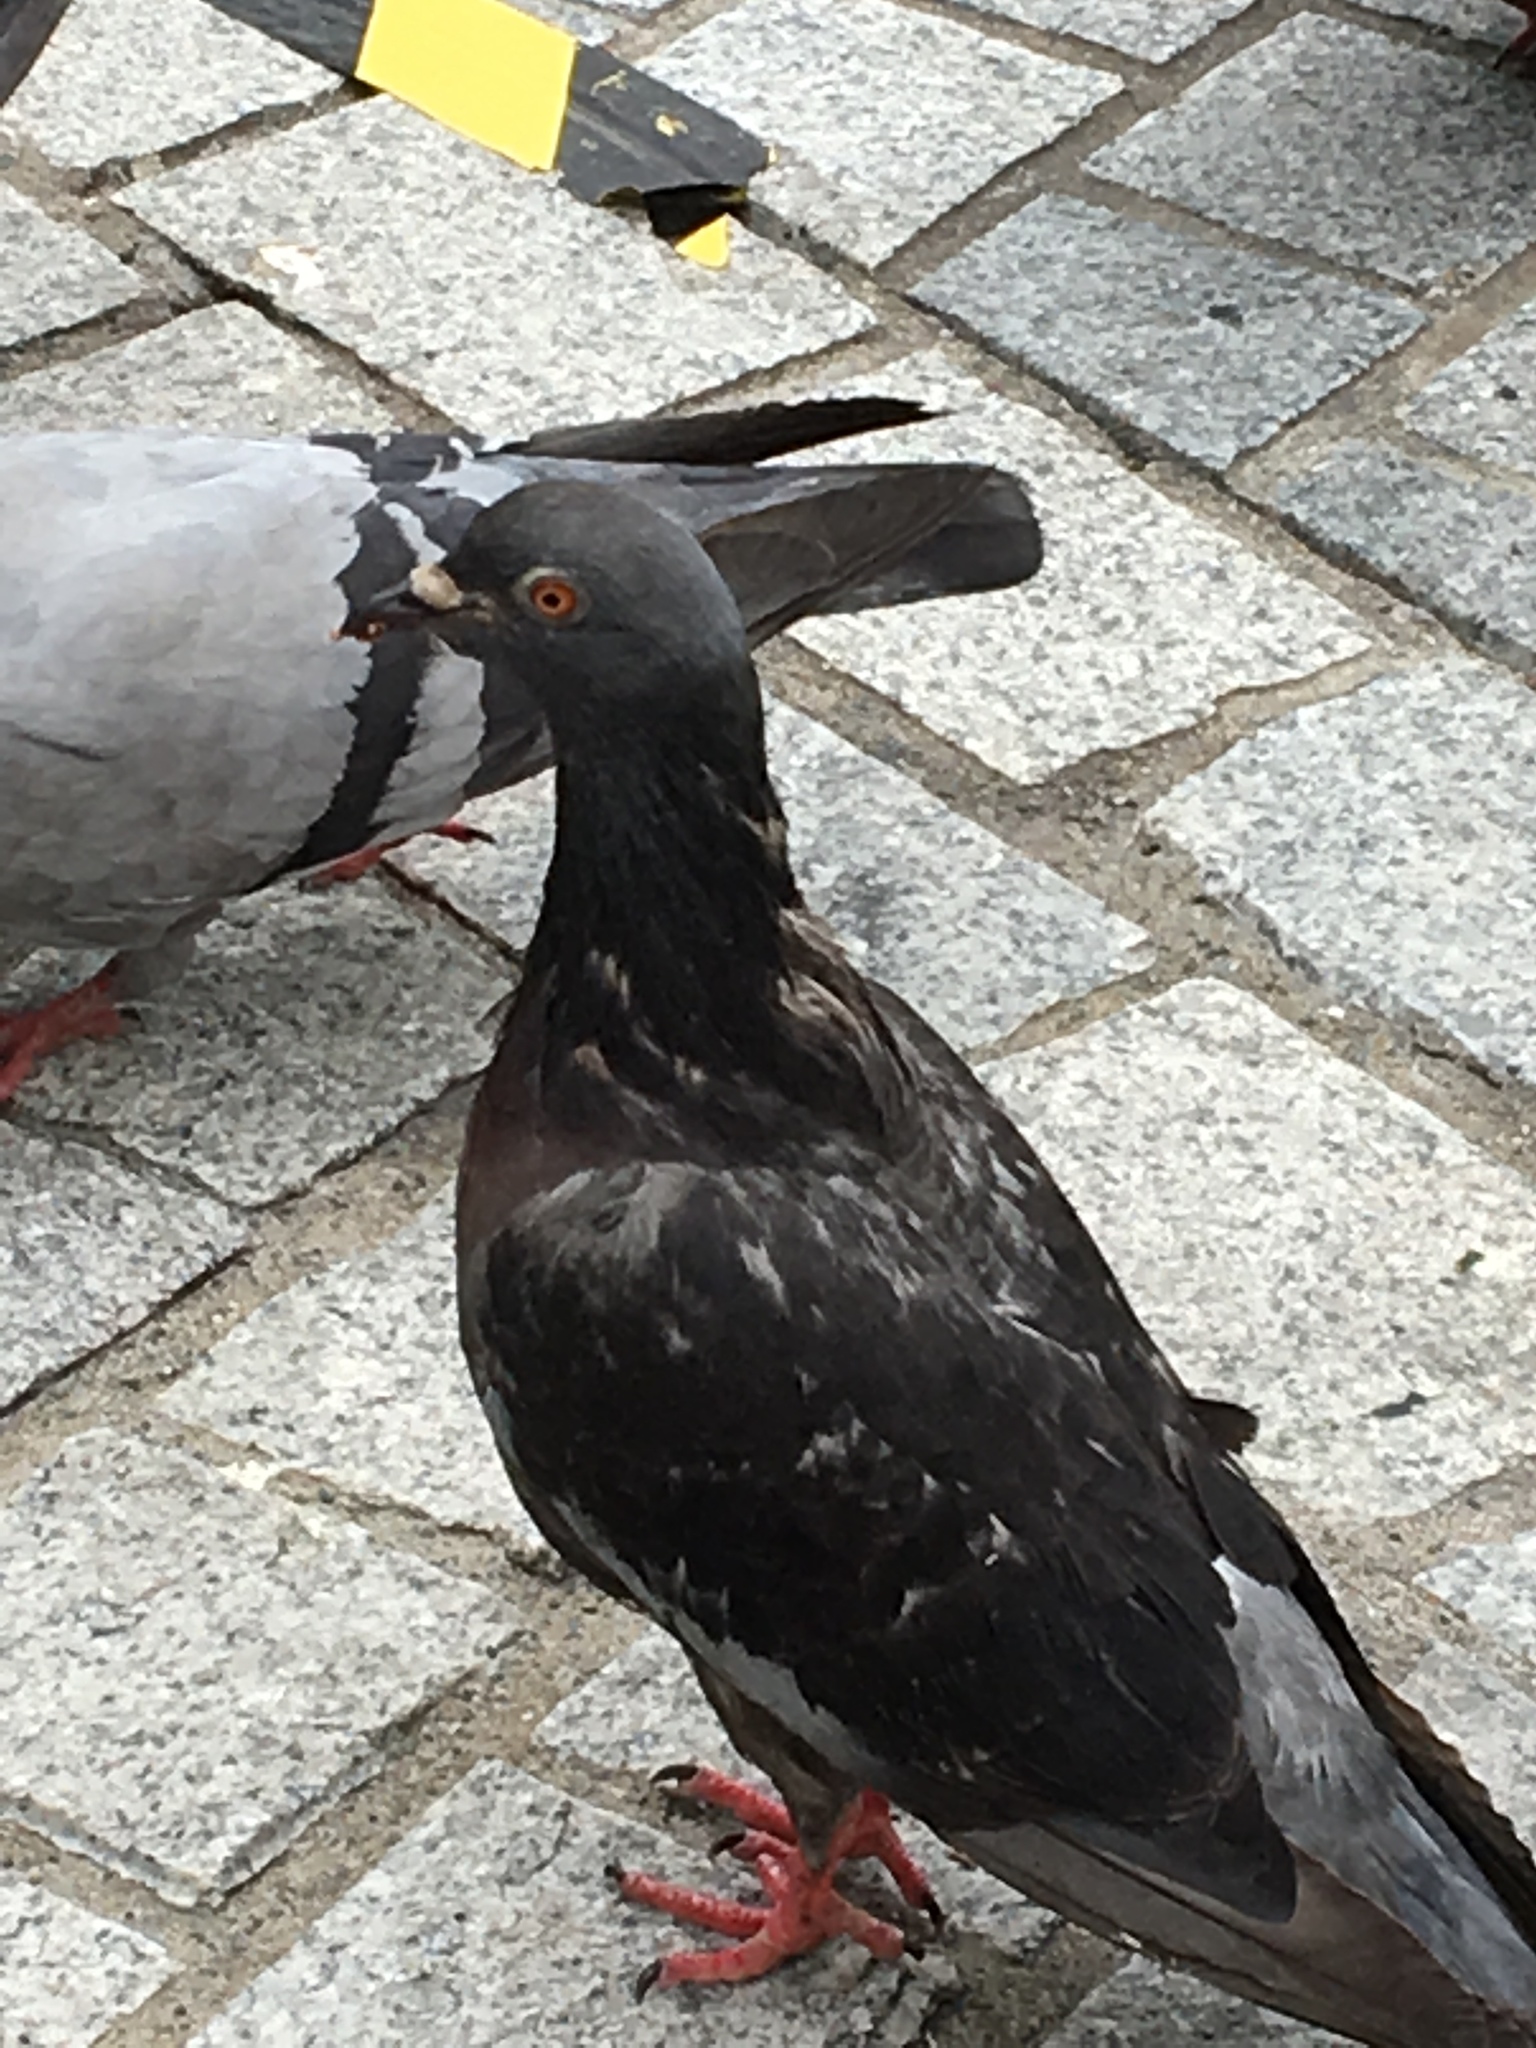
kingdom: Animalia
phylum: Chordata
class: Aves
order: Columbiformes
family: Columbidae
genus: Columba
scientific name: Columba livia
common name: Rock pigeon
